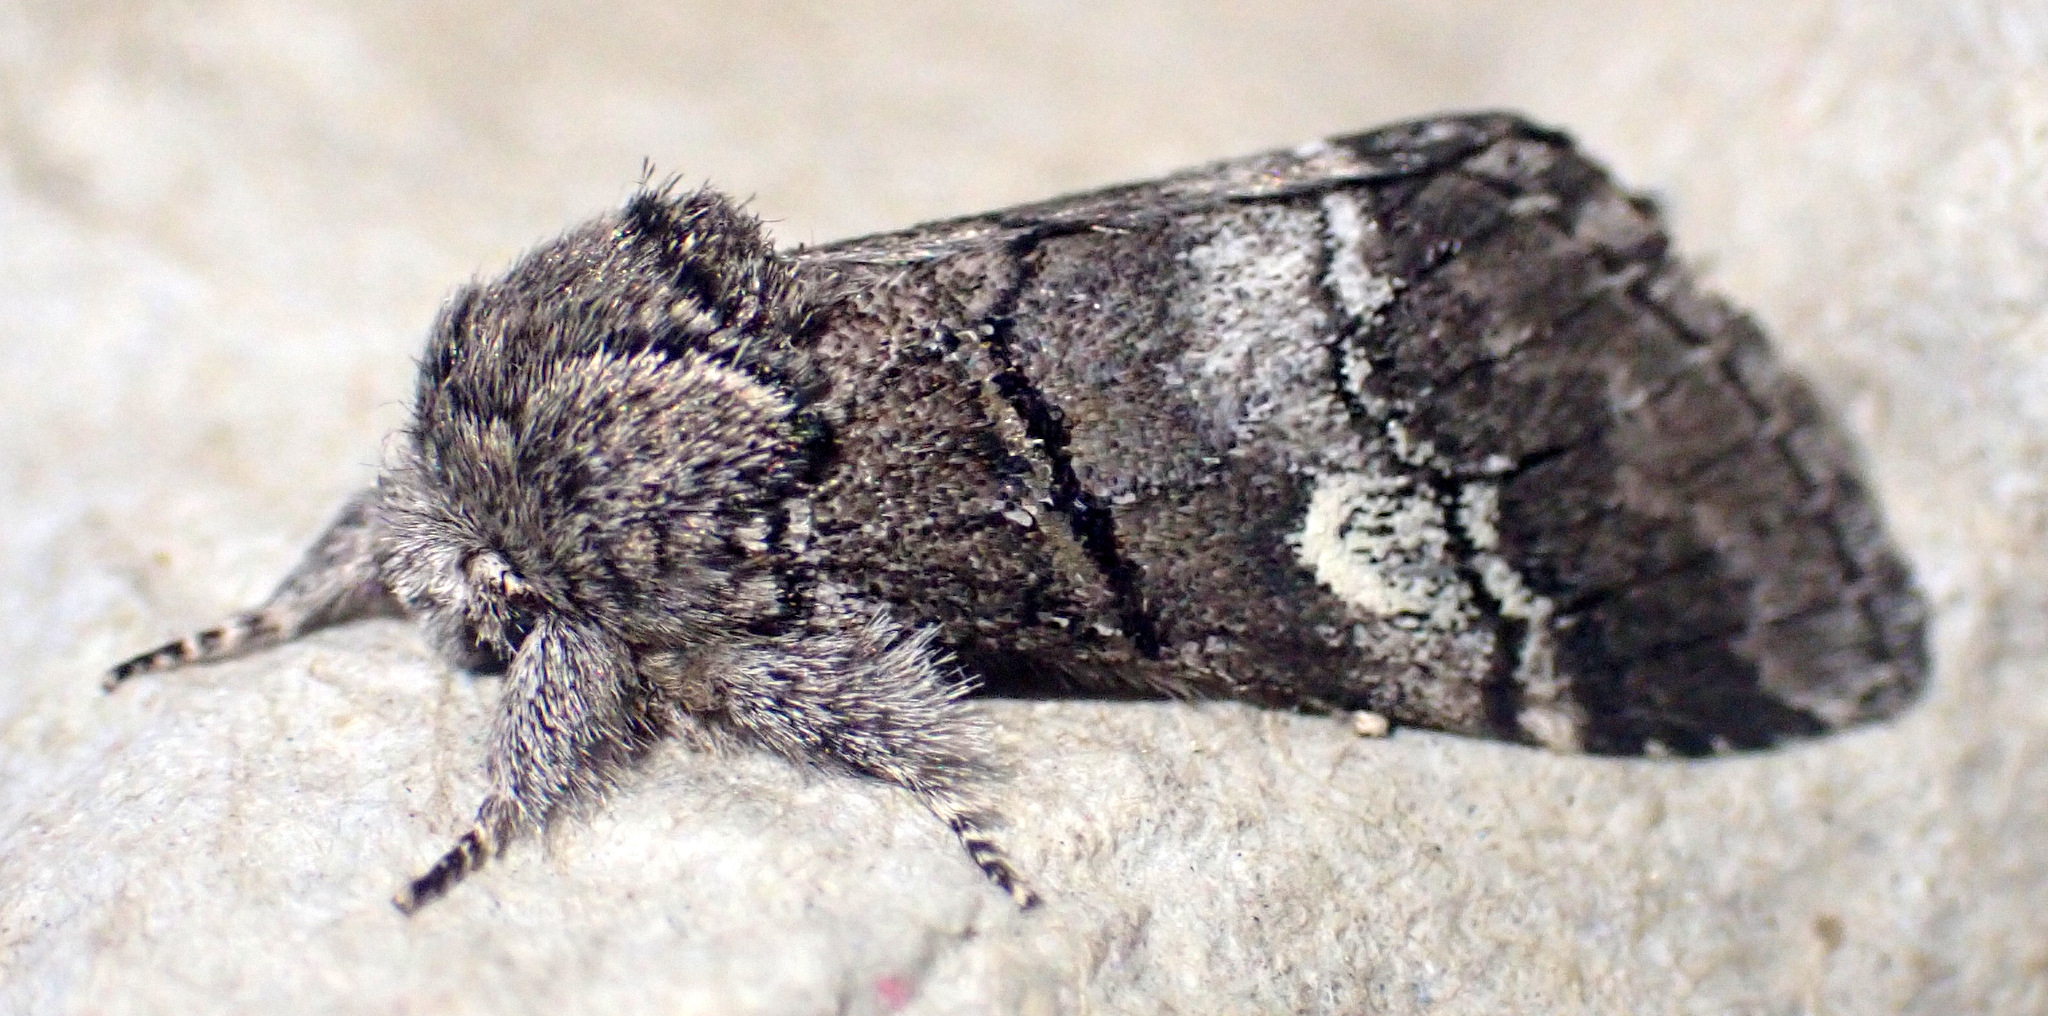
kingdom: Animalia
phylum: Arthropoda
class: Insecta
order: Lepidoptera
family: Notodontidae
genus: Drymonia
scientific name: Drymonia querna
